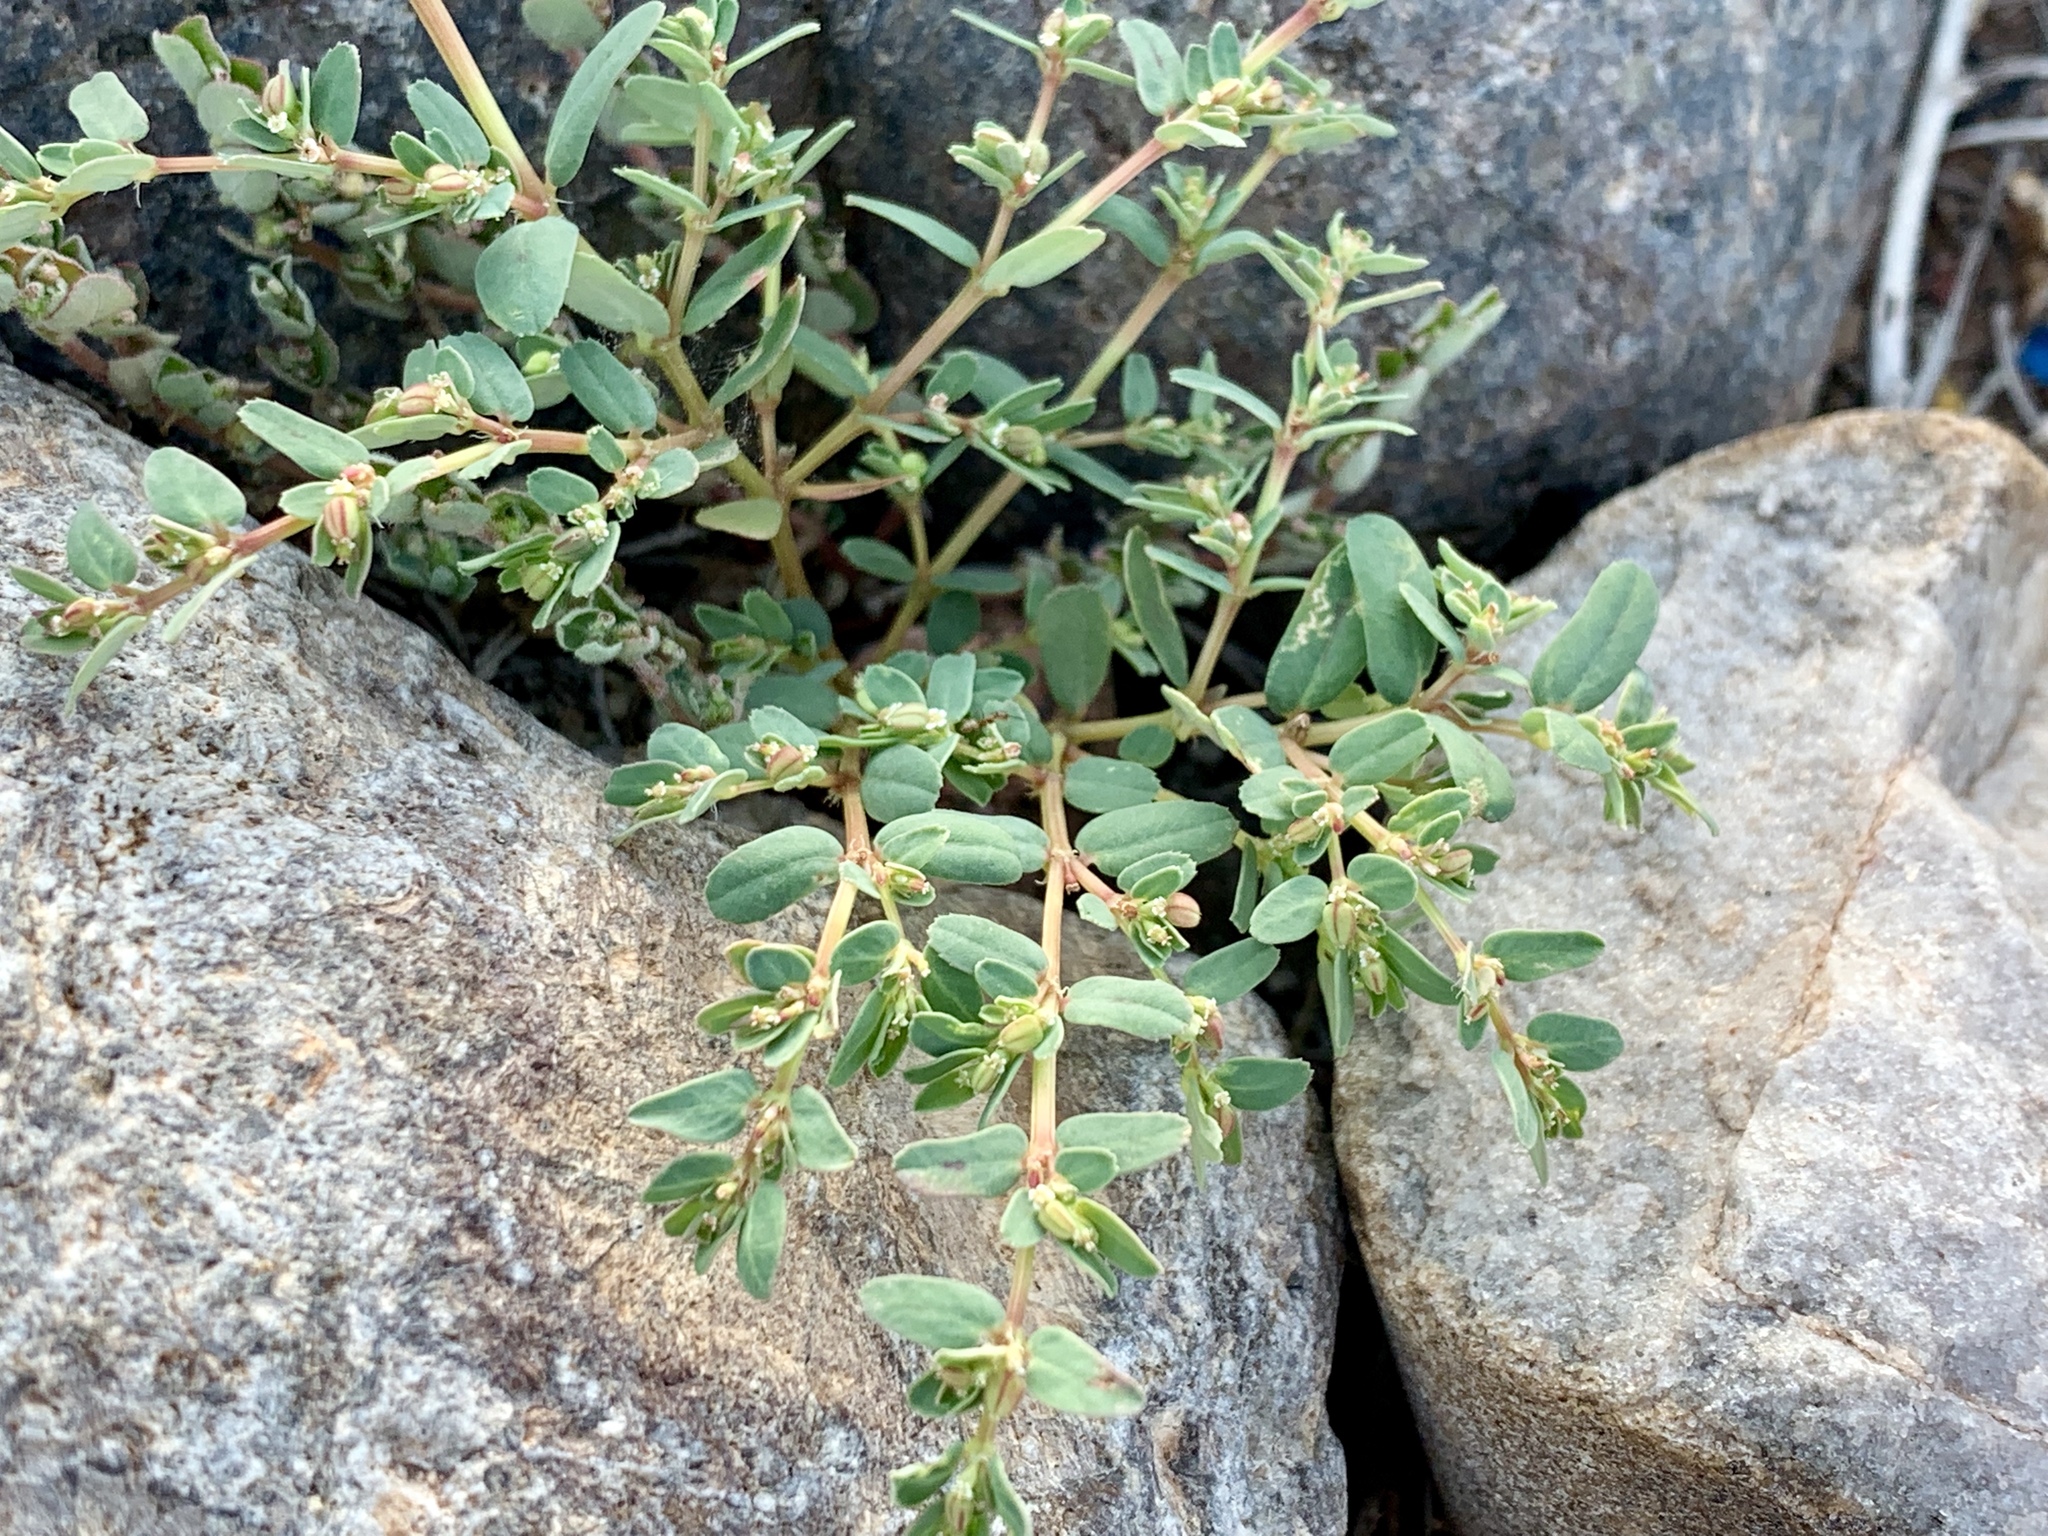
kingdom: Plantae
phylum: Tracheophyta
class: Magnoliopsida
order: Malpighiales
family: Euphorbiaceae
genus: Euphorbia
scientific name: Euphorbia serpillifolia
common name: Thyme-leaf spurge
